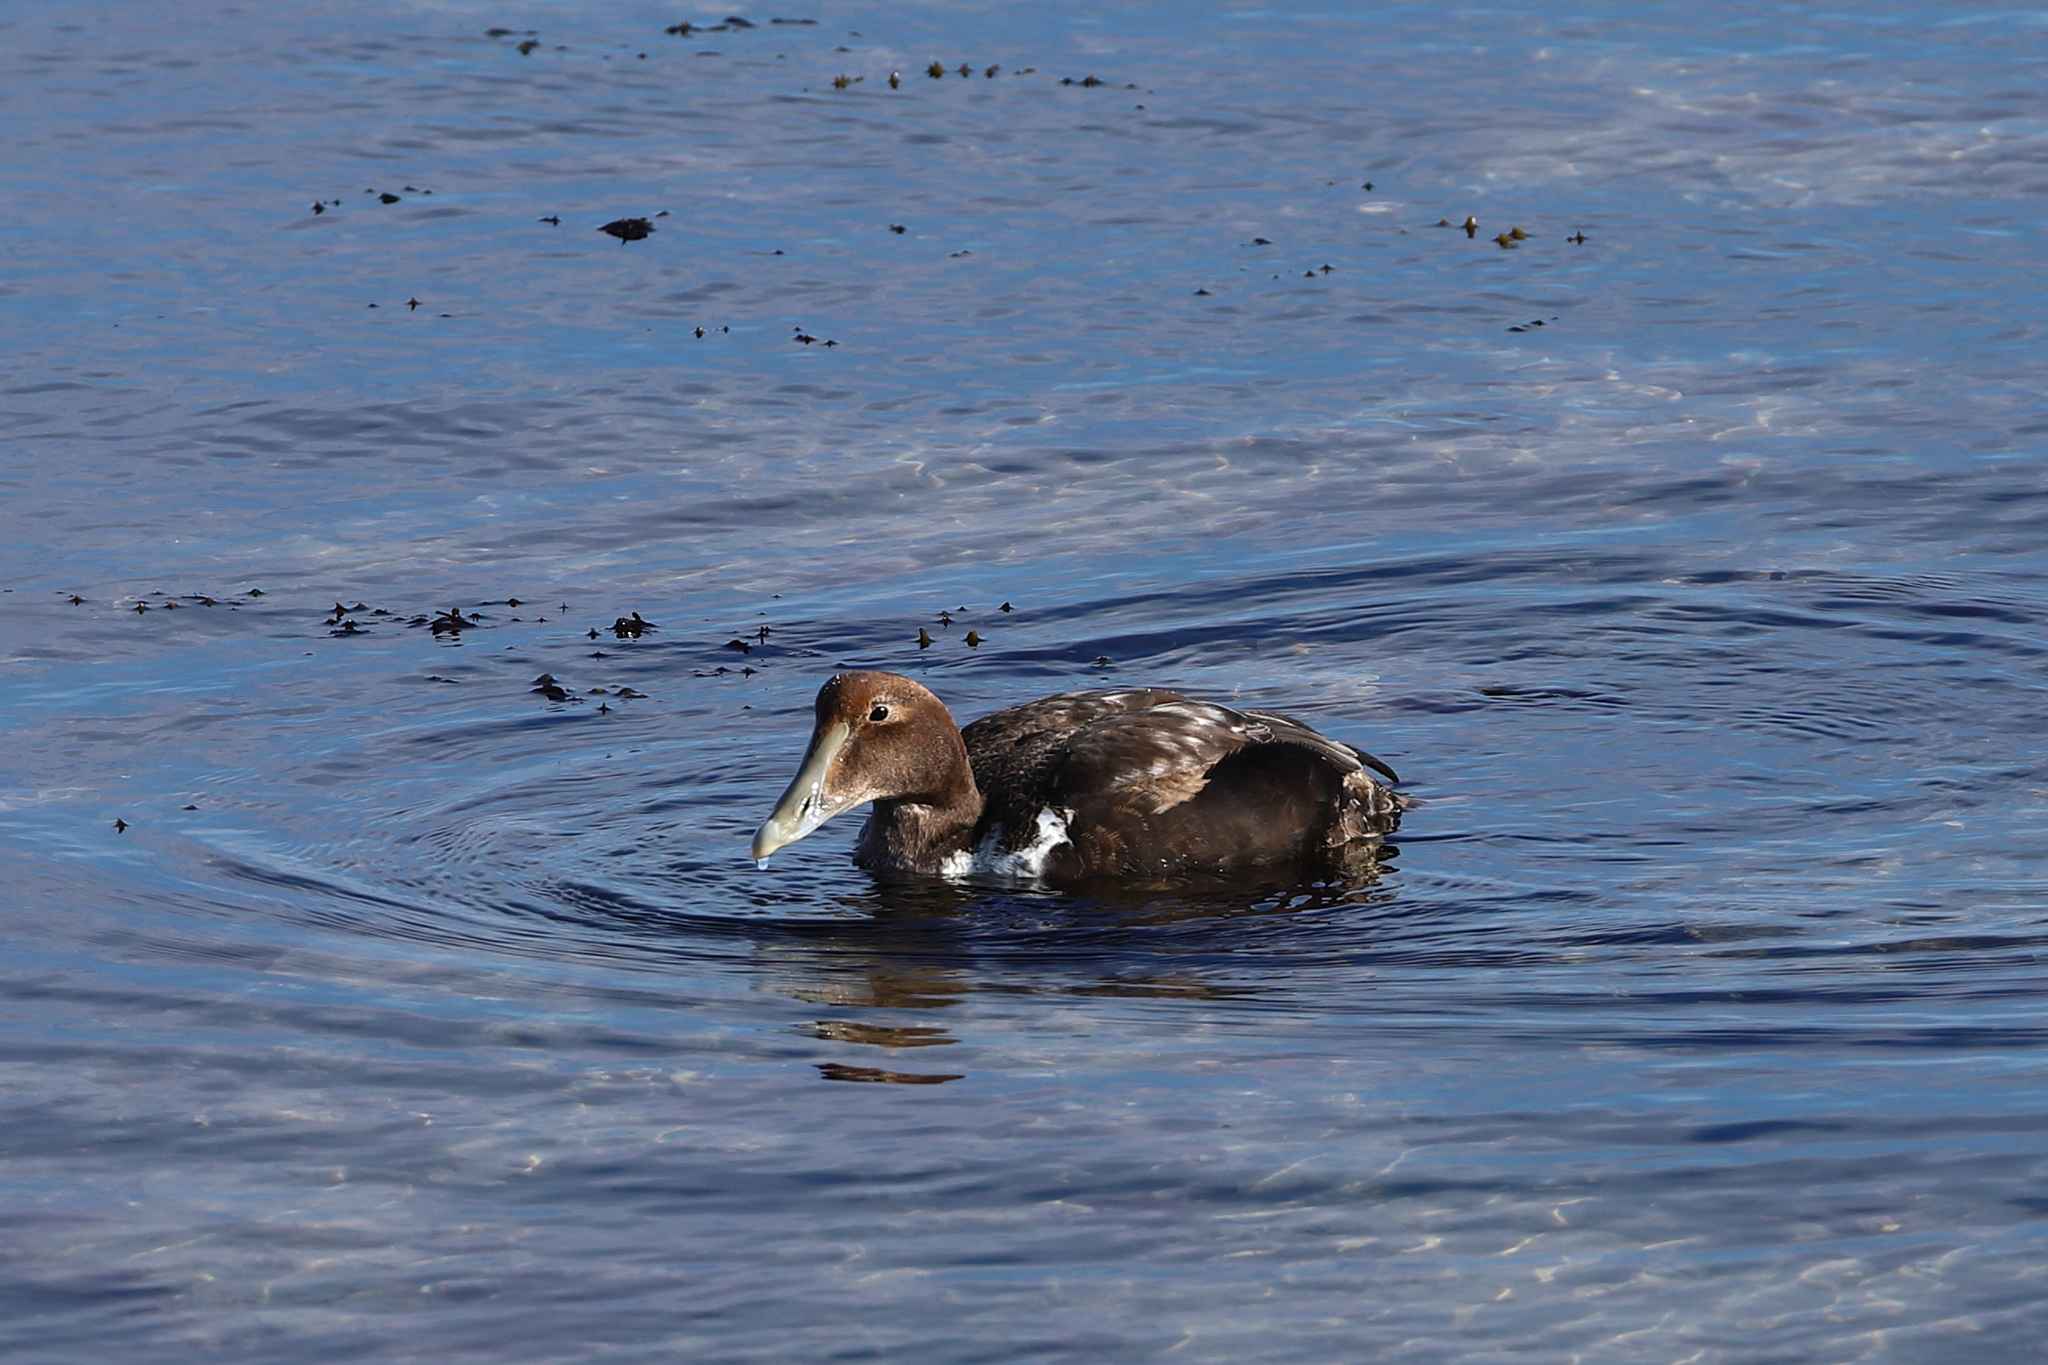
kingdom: Animalia
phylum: Chordata
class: Aves
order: Anseriformes
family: Anatidae
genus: Somateria
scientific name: Somateria mollissima
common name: Common eider
